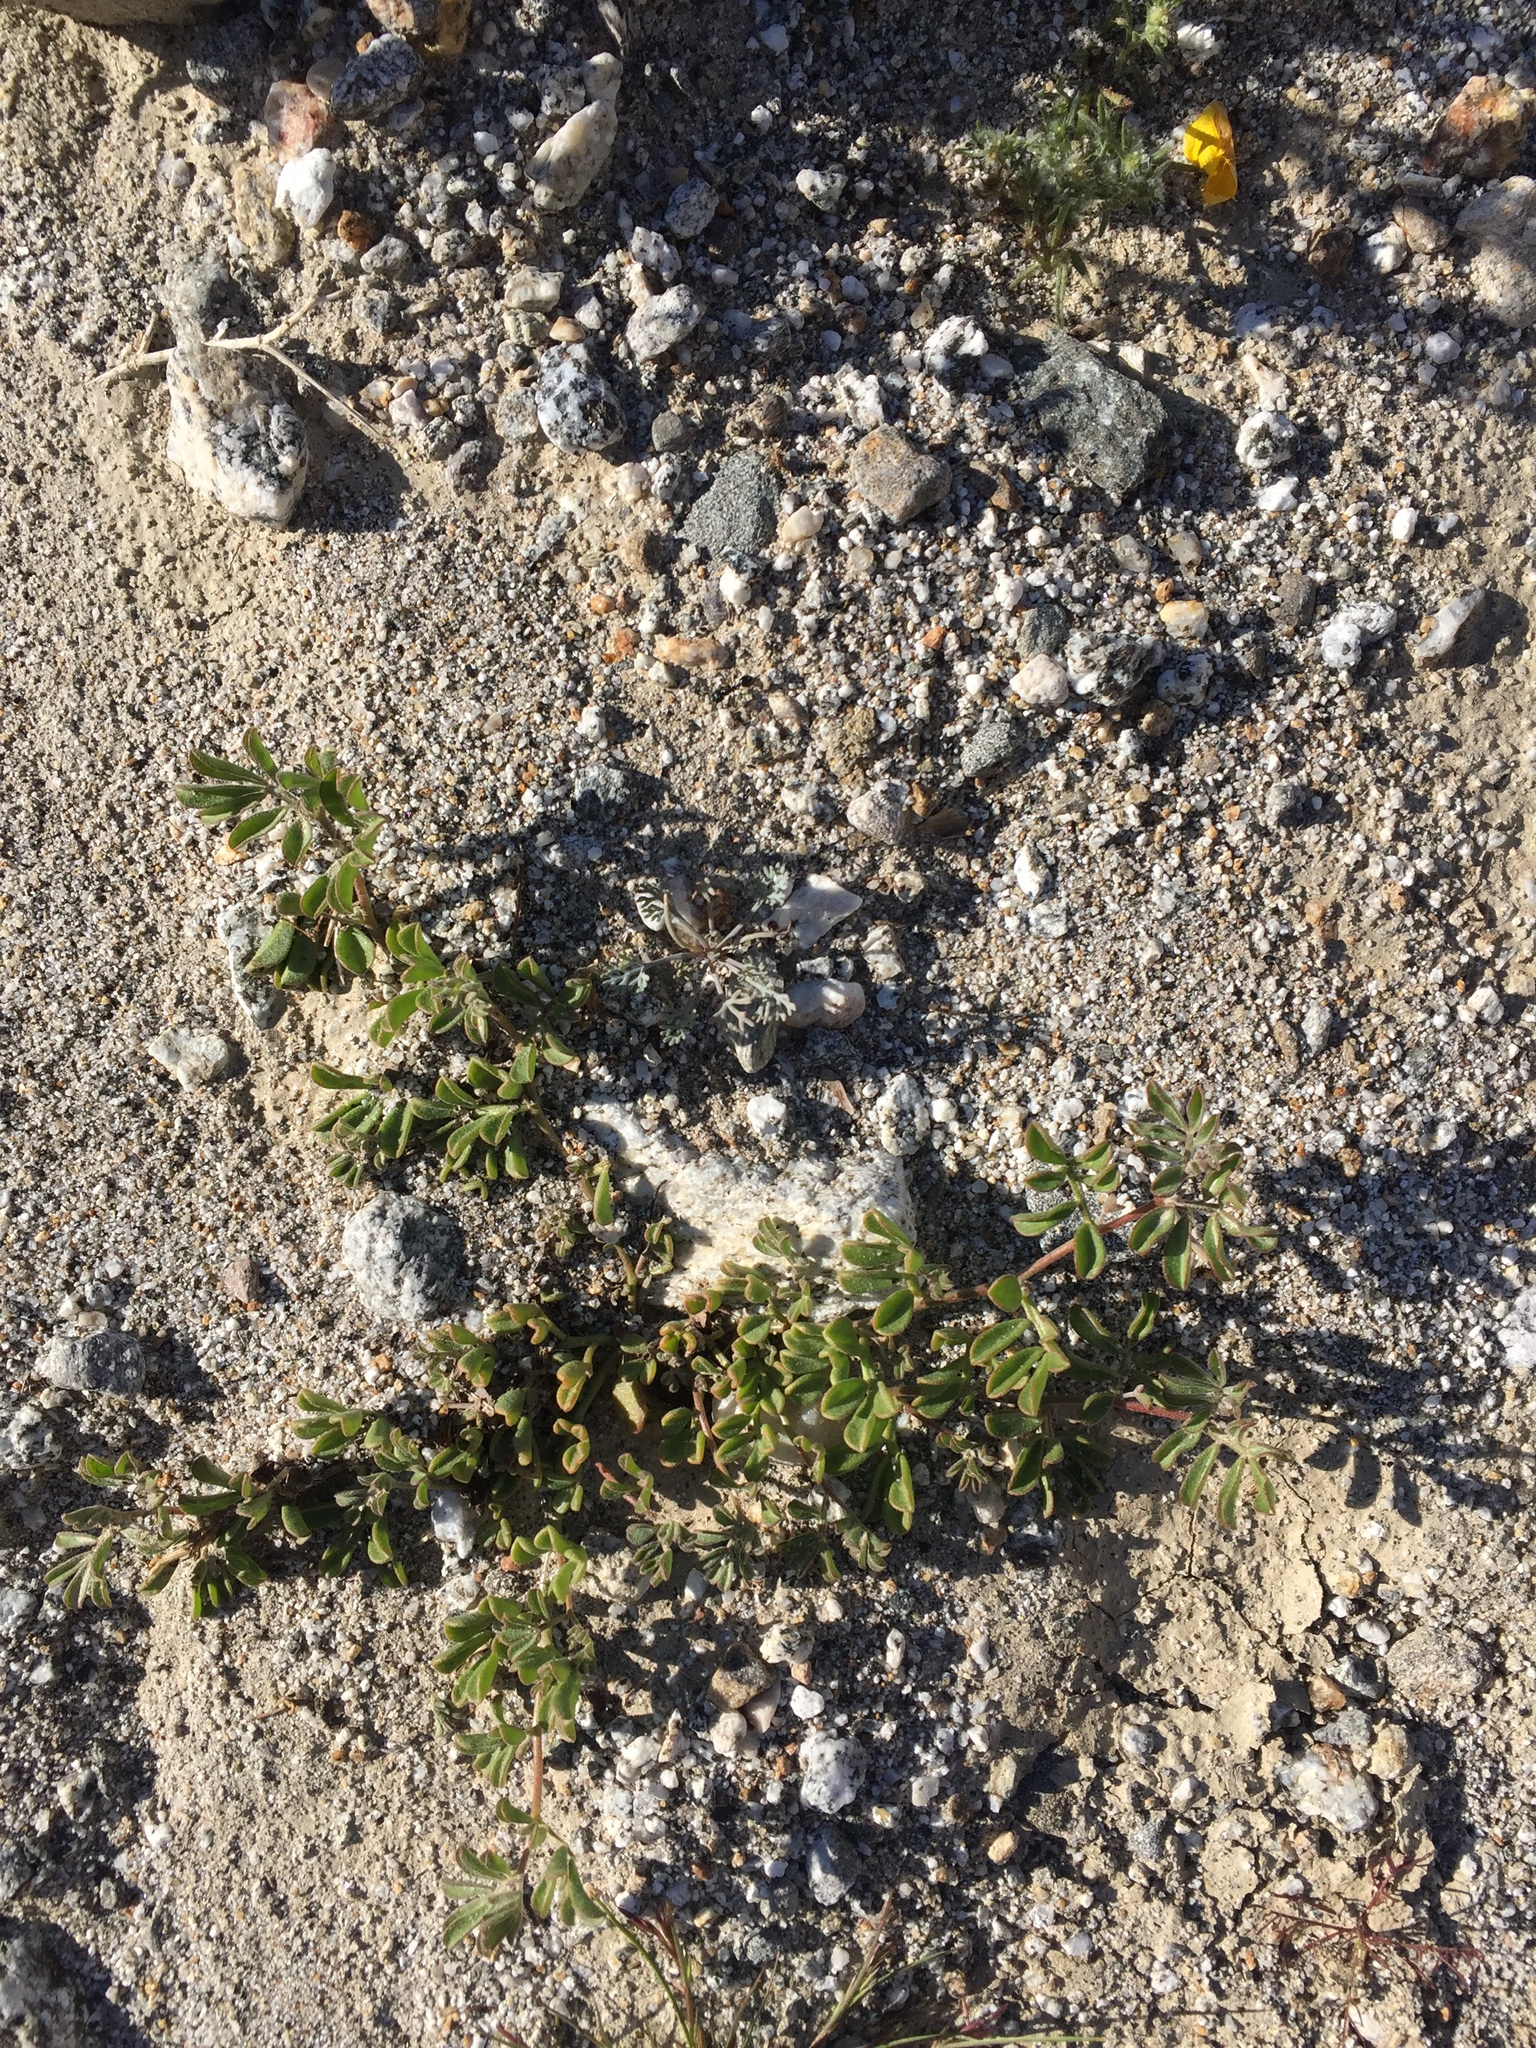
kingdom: Plantae
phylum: Tracheophyta
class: Magnoliopsida
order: Fabales
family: Fabaceae
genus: Acmispon
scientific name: Acmispon strigosus
